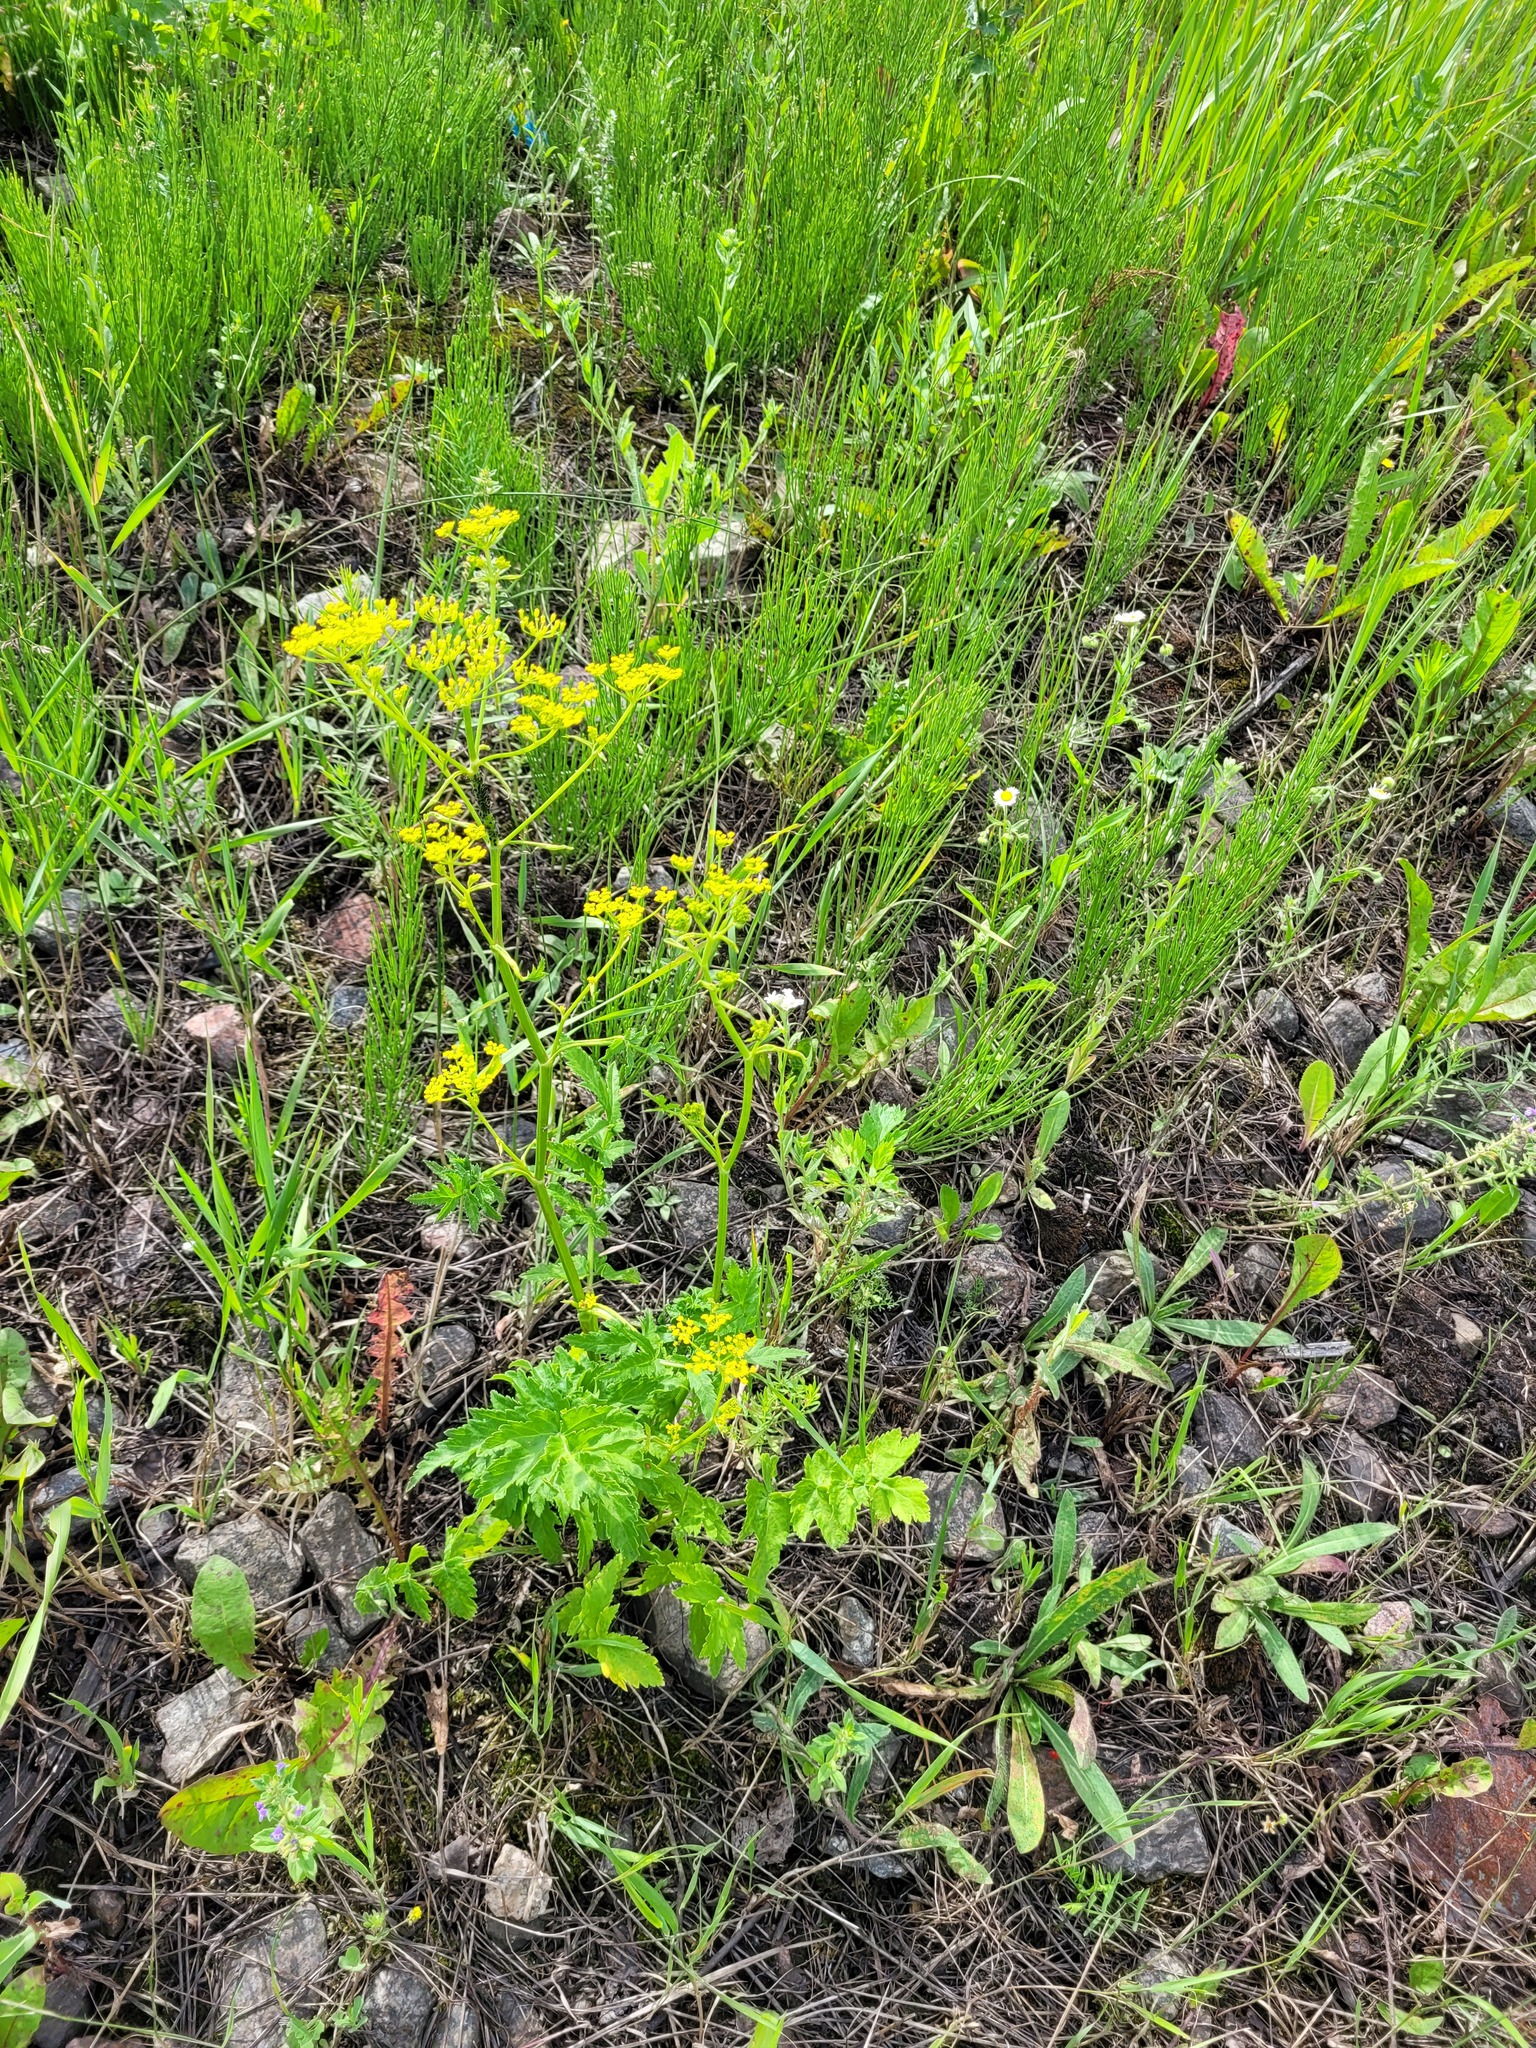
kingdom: Plantae
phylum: Tracheophyta
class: Magnoliopsida
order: Apiales
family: Apiaceae
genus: Pastinaca
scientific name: Pastinaca sativa
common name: Wild parsnip
